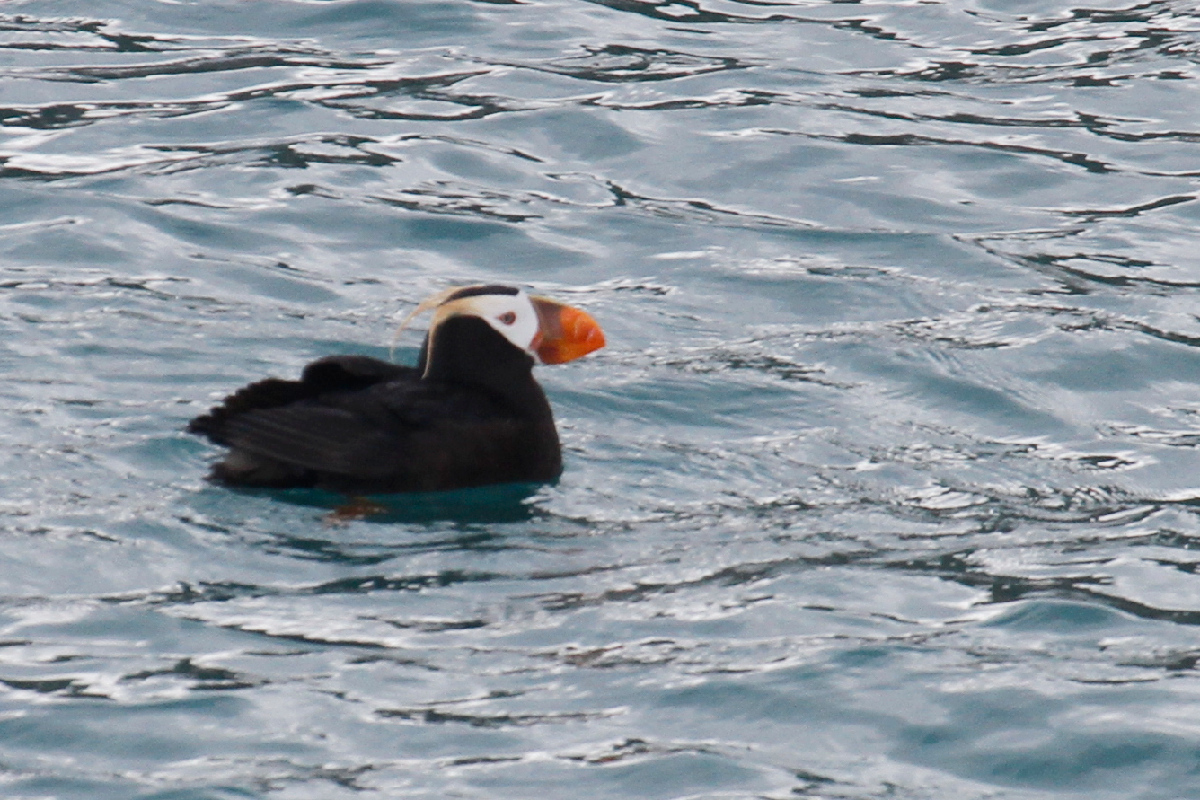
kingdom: Animalia
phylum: Chordata
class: Aves
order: Charadriiformes
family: Alcidae
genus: Fratercula
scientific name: Fratercula cirrhata
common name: Tufted puffin
